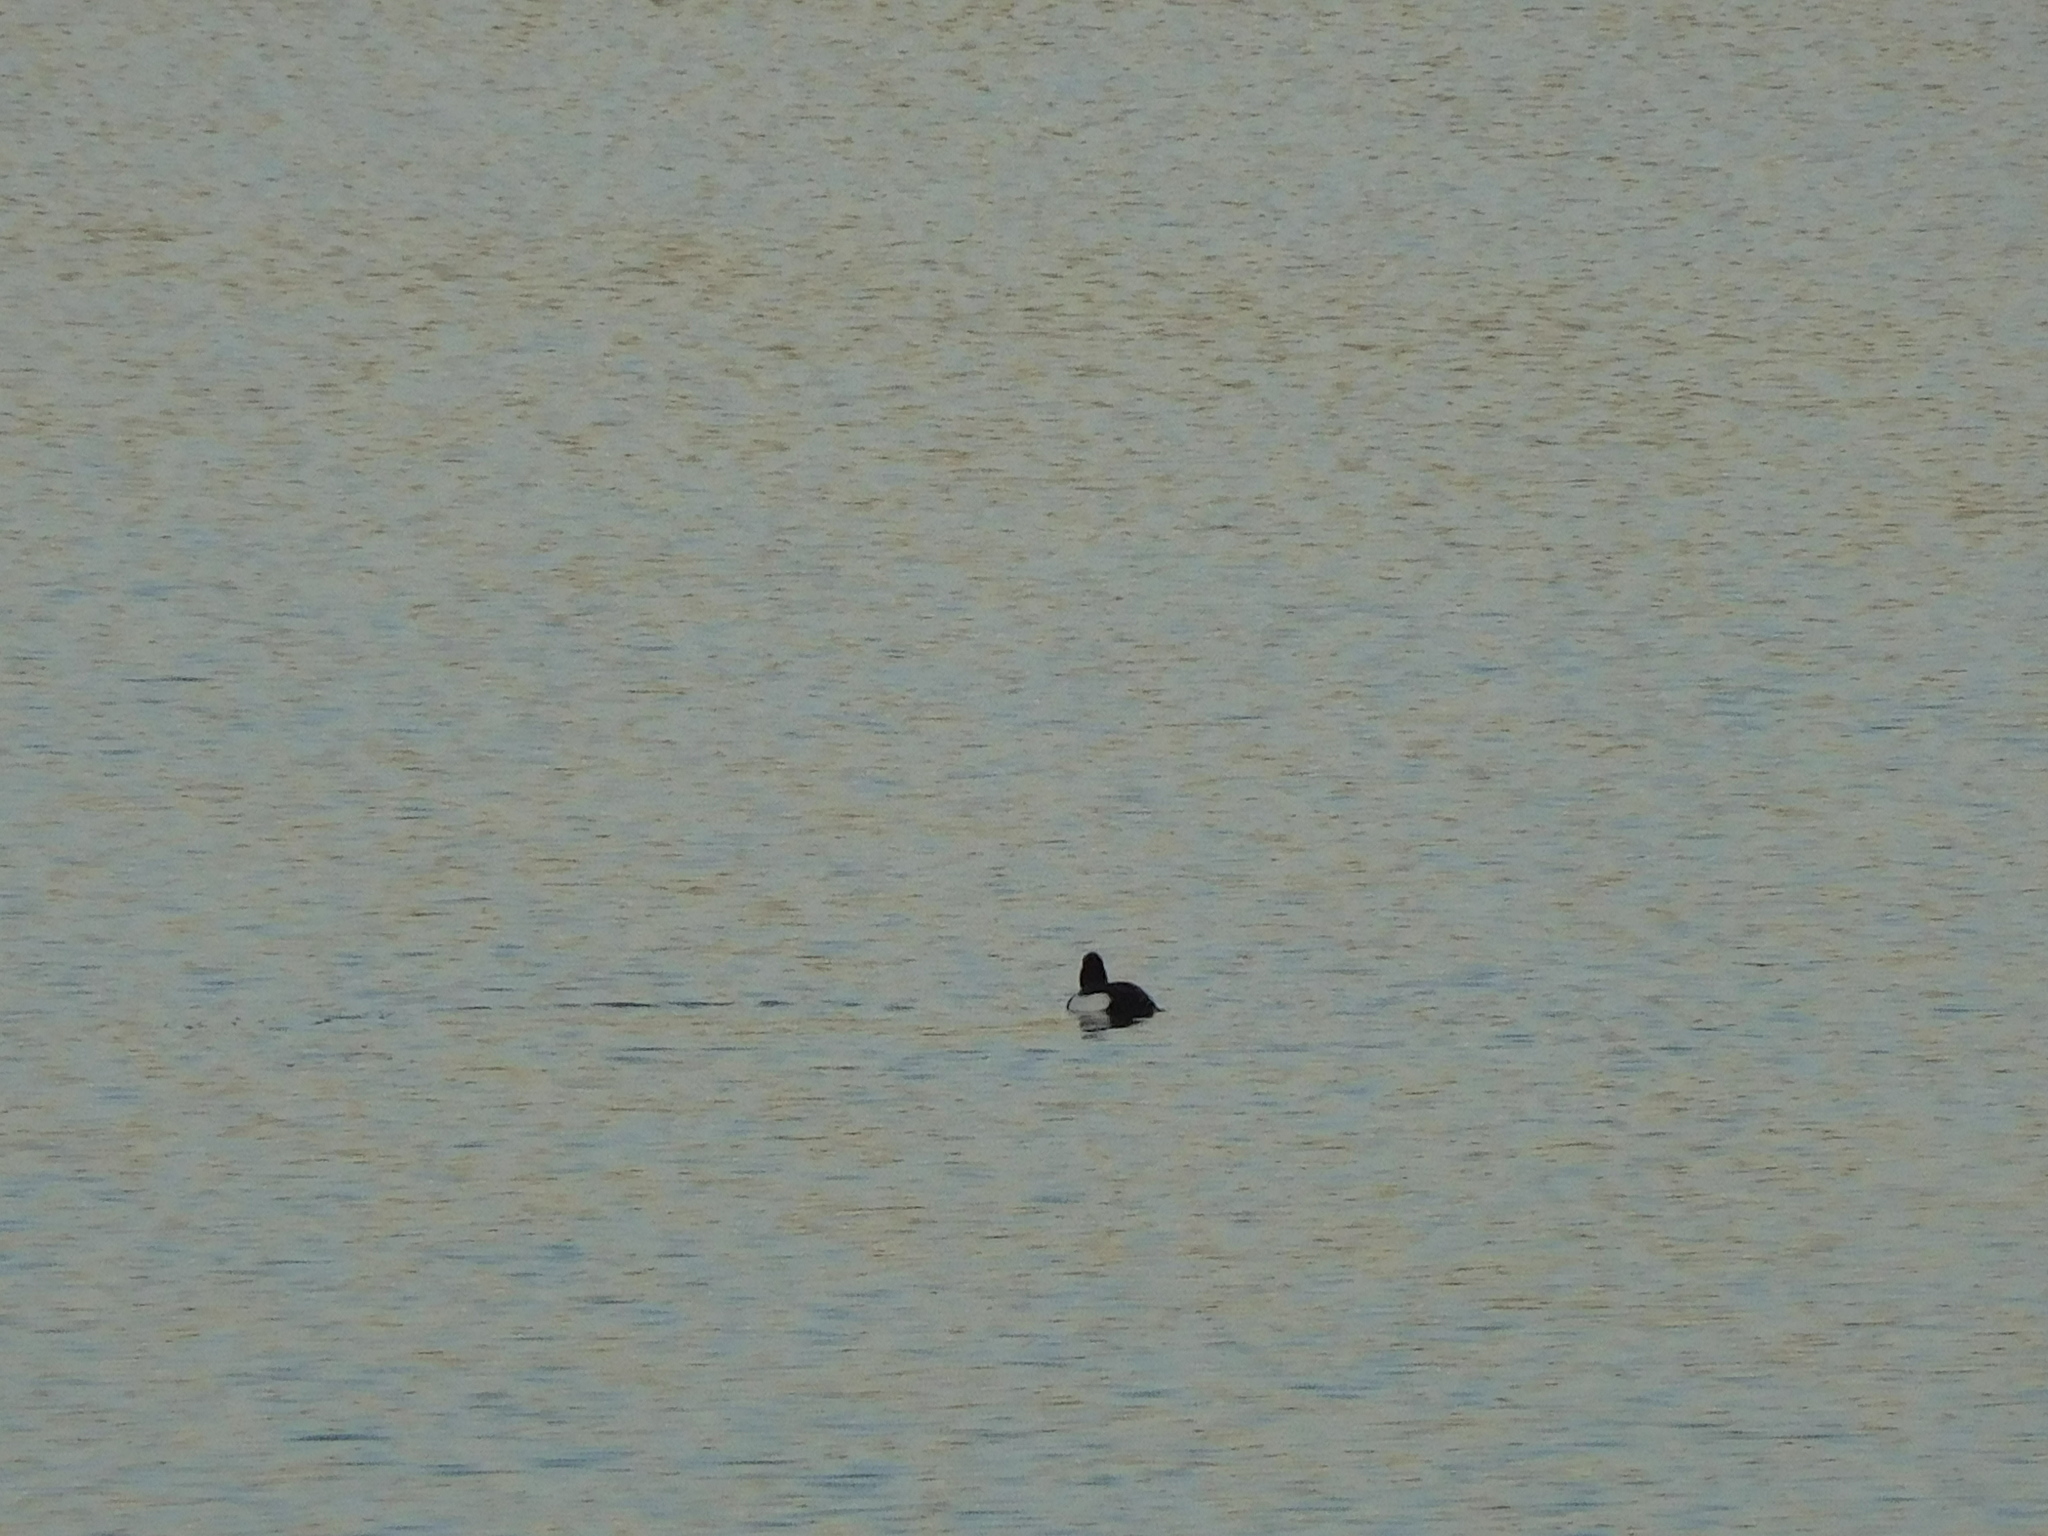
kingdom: Animalia
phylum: Chordata
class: Aves
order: Anseriformes
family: Anatidae
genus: Aythya
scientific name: Aythya fuligula
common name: Tufted duck
